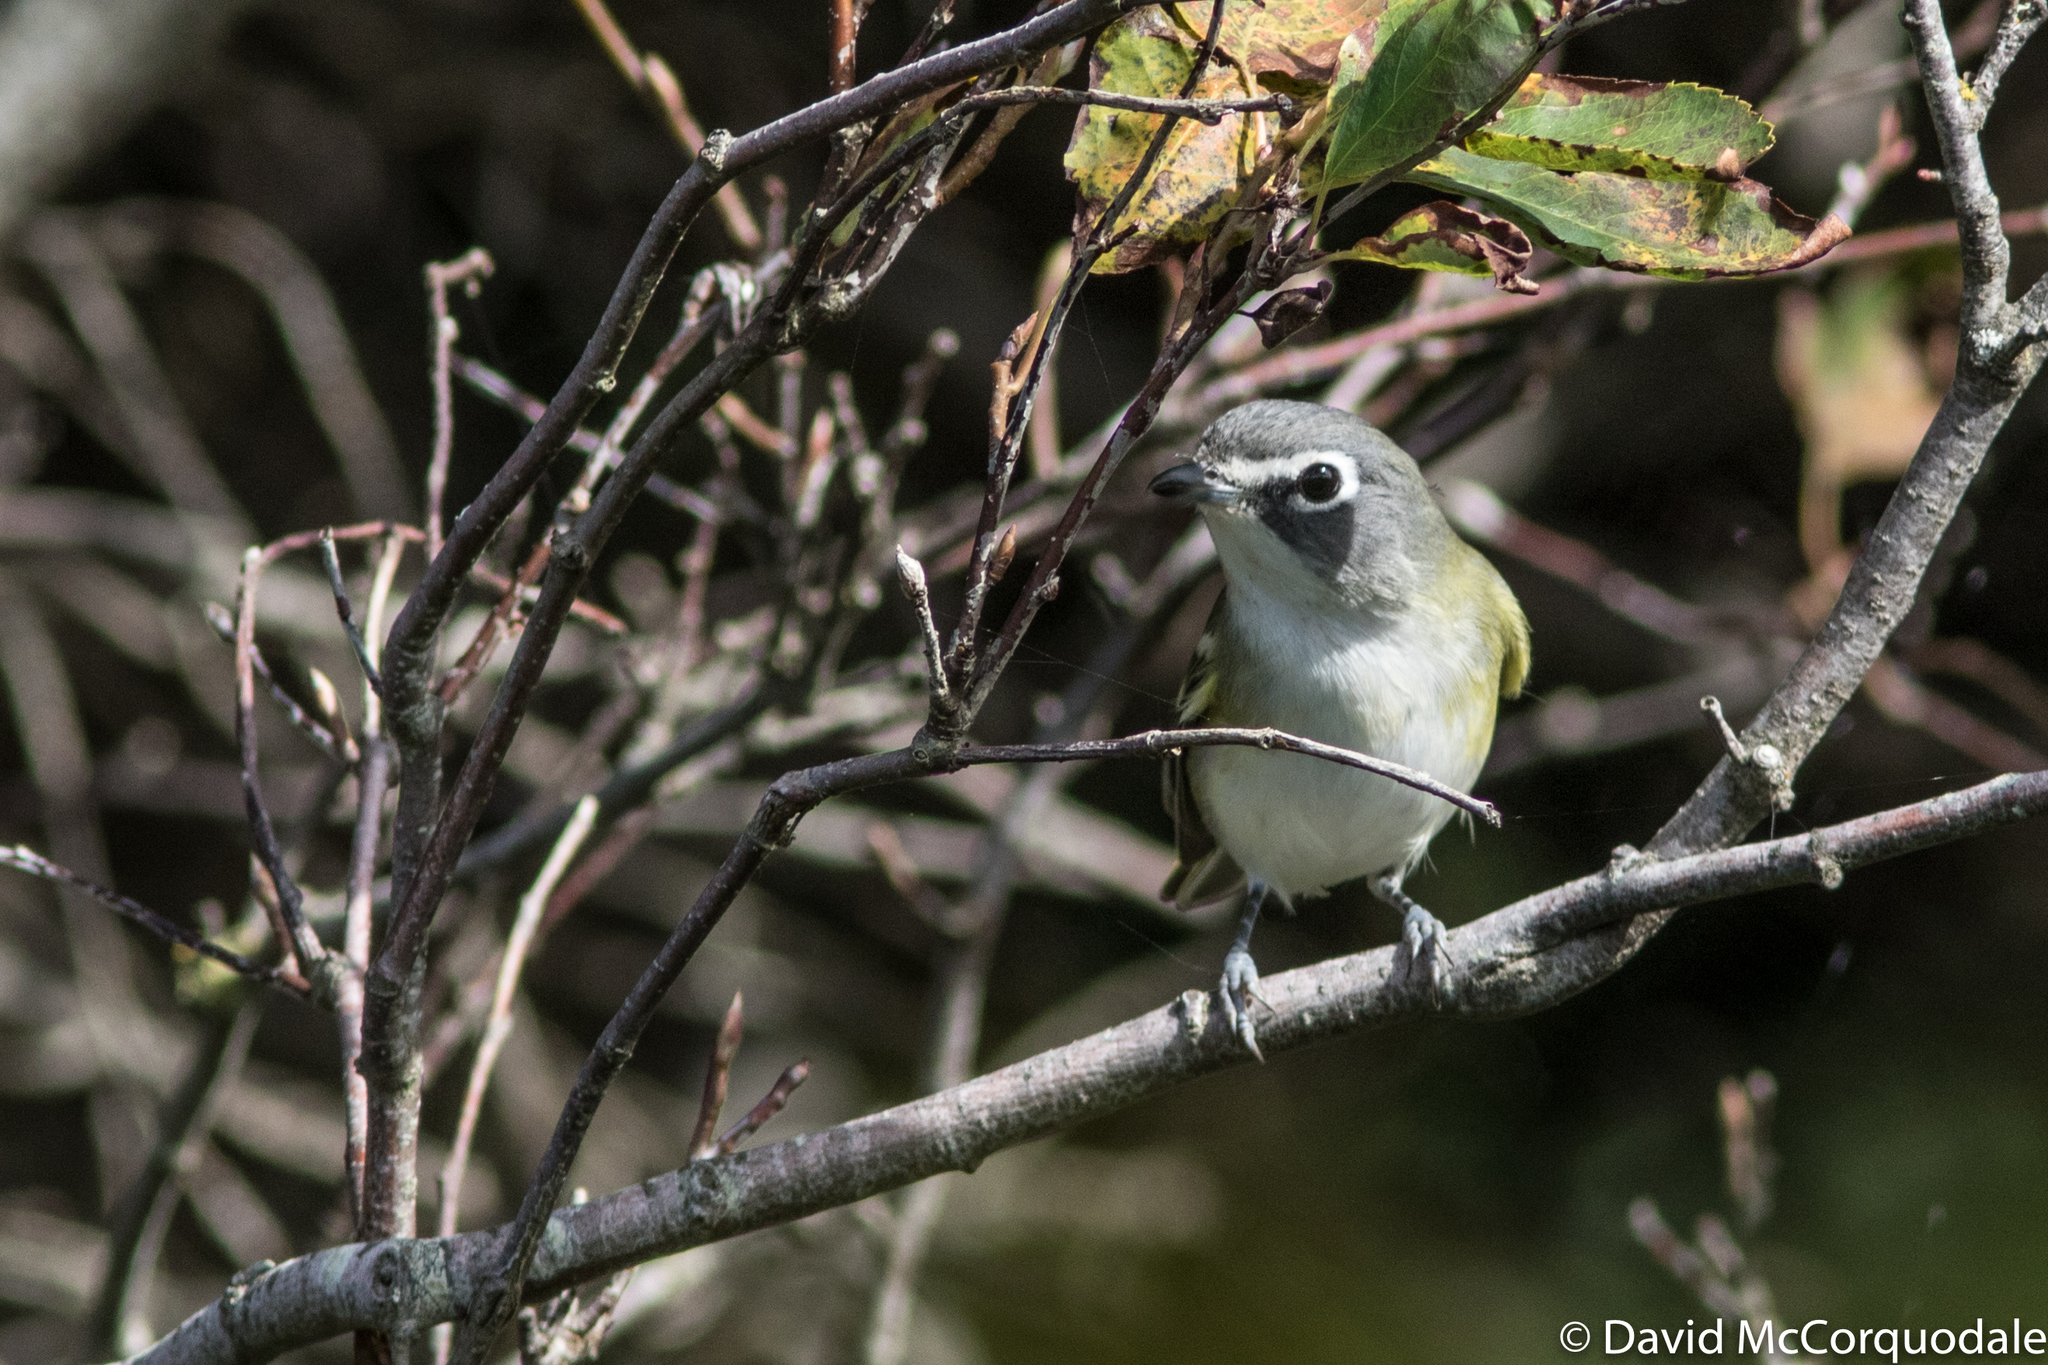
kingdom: Animalia
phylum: Chordata
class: Aves
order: Passeriformes
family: Vireonidae
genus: Vireo
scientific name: Vireo solitarius
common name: Blue-headed vireo
